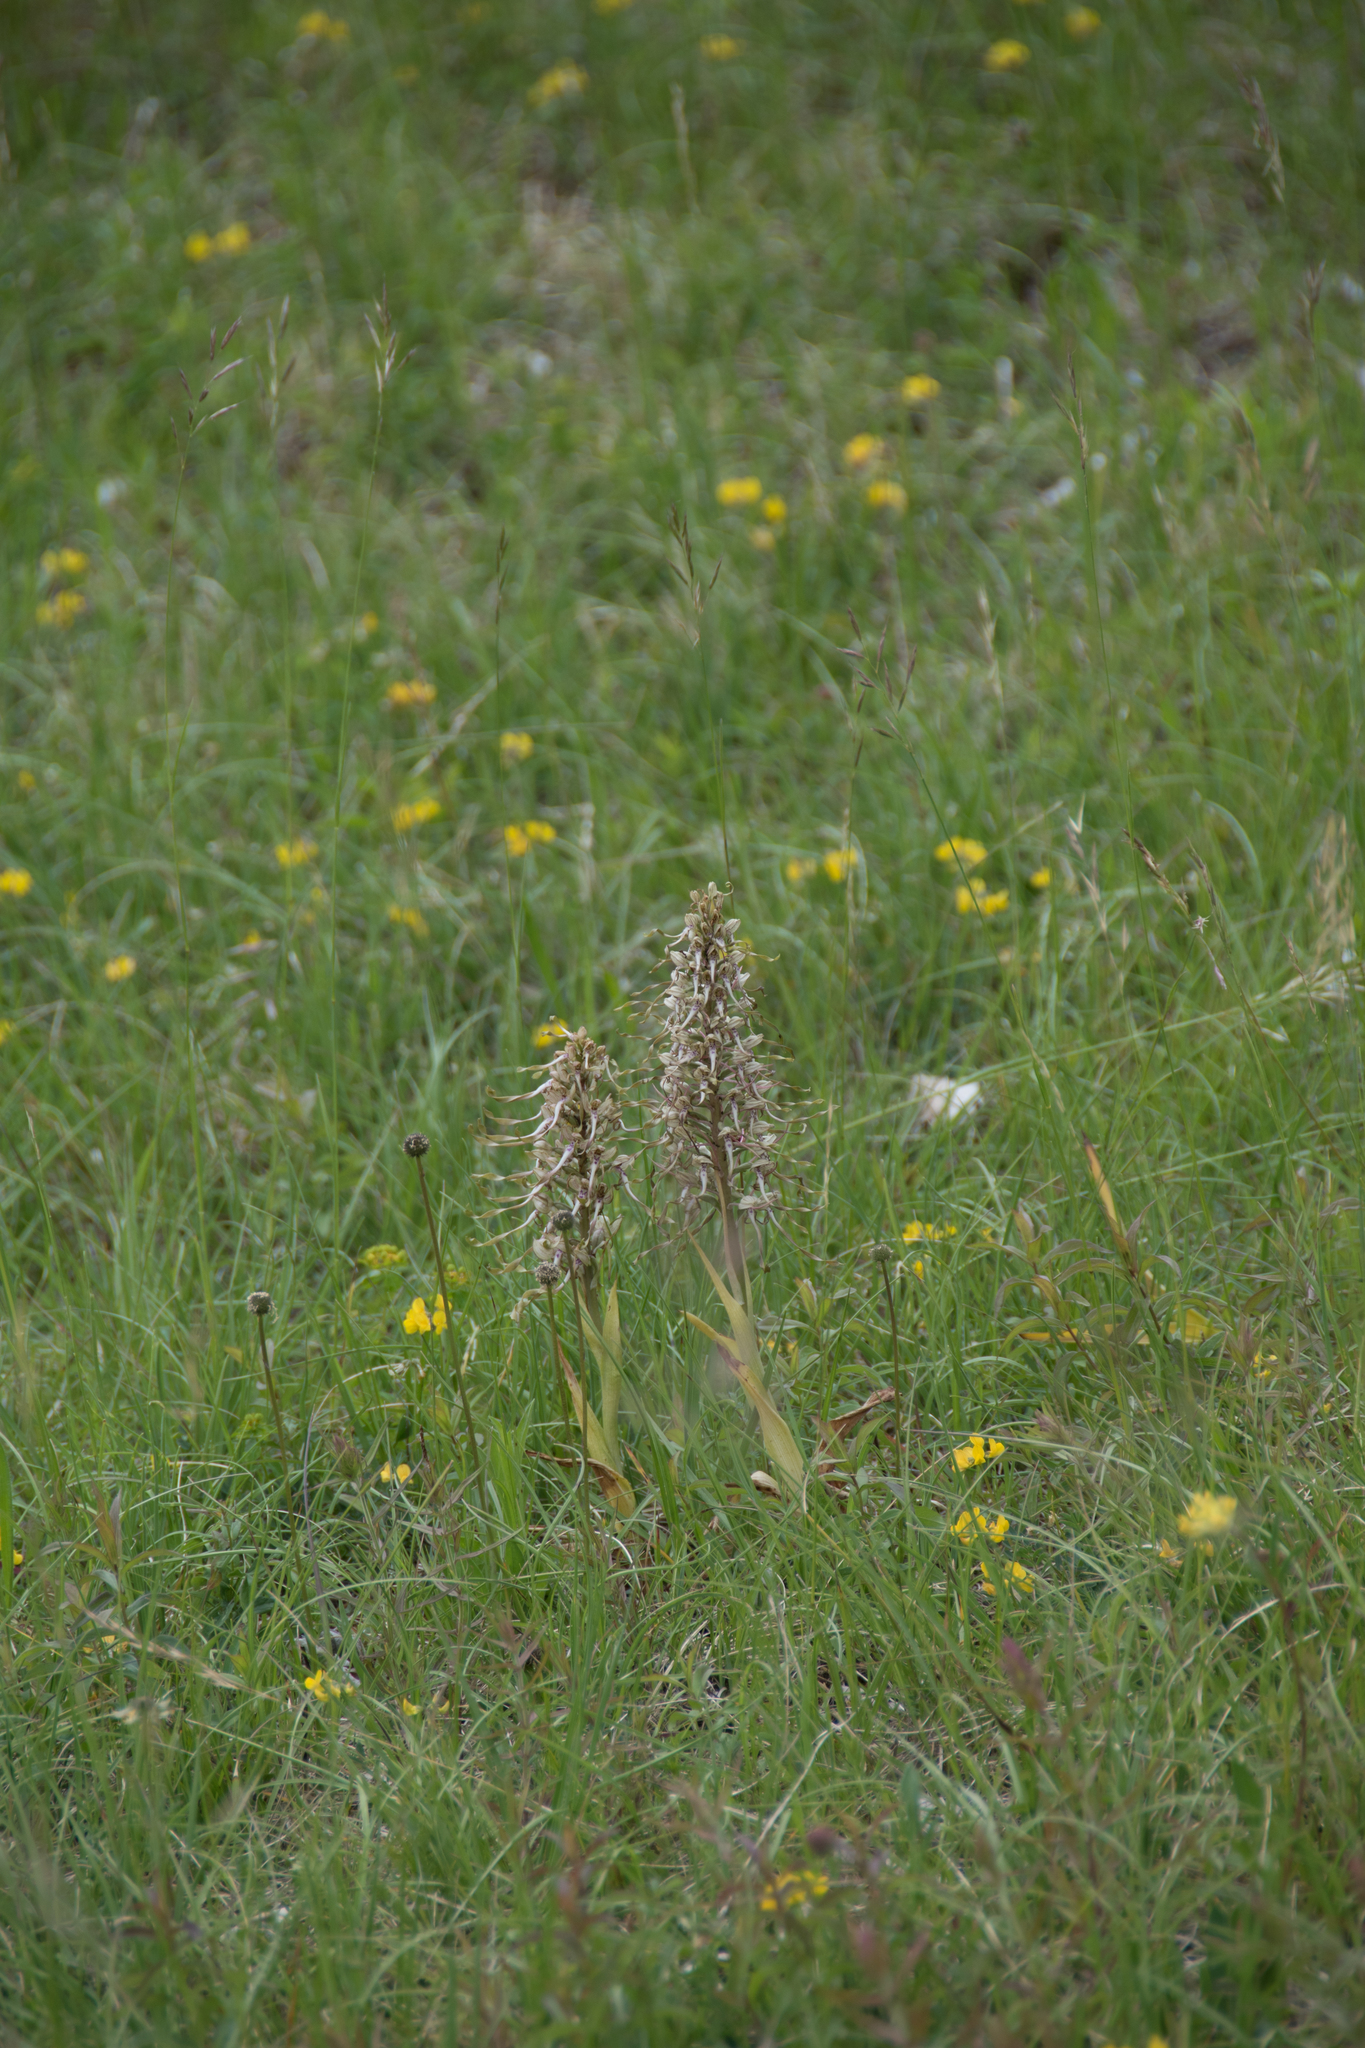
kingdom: Plantae
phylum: Tracheophyta
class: Liliopsida
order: Asparagales
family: Orchidaceae
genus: Himantoglossum
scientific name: Himantoglossum hircinum
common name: Lizard orchid
